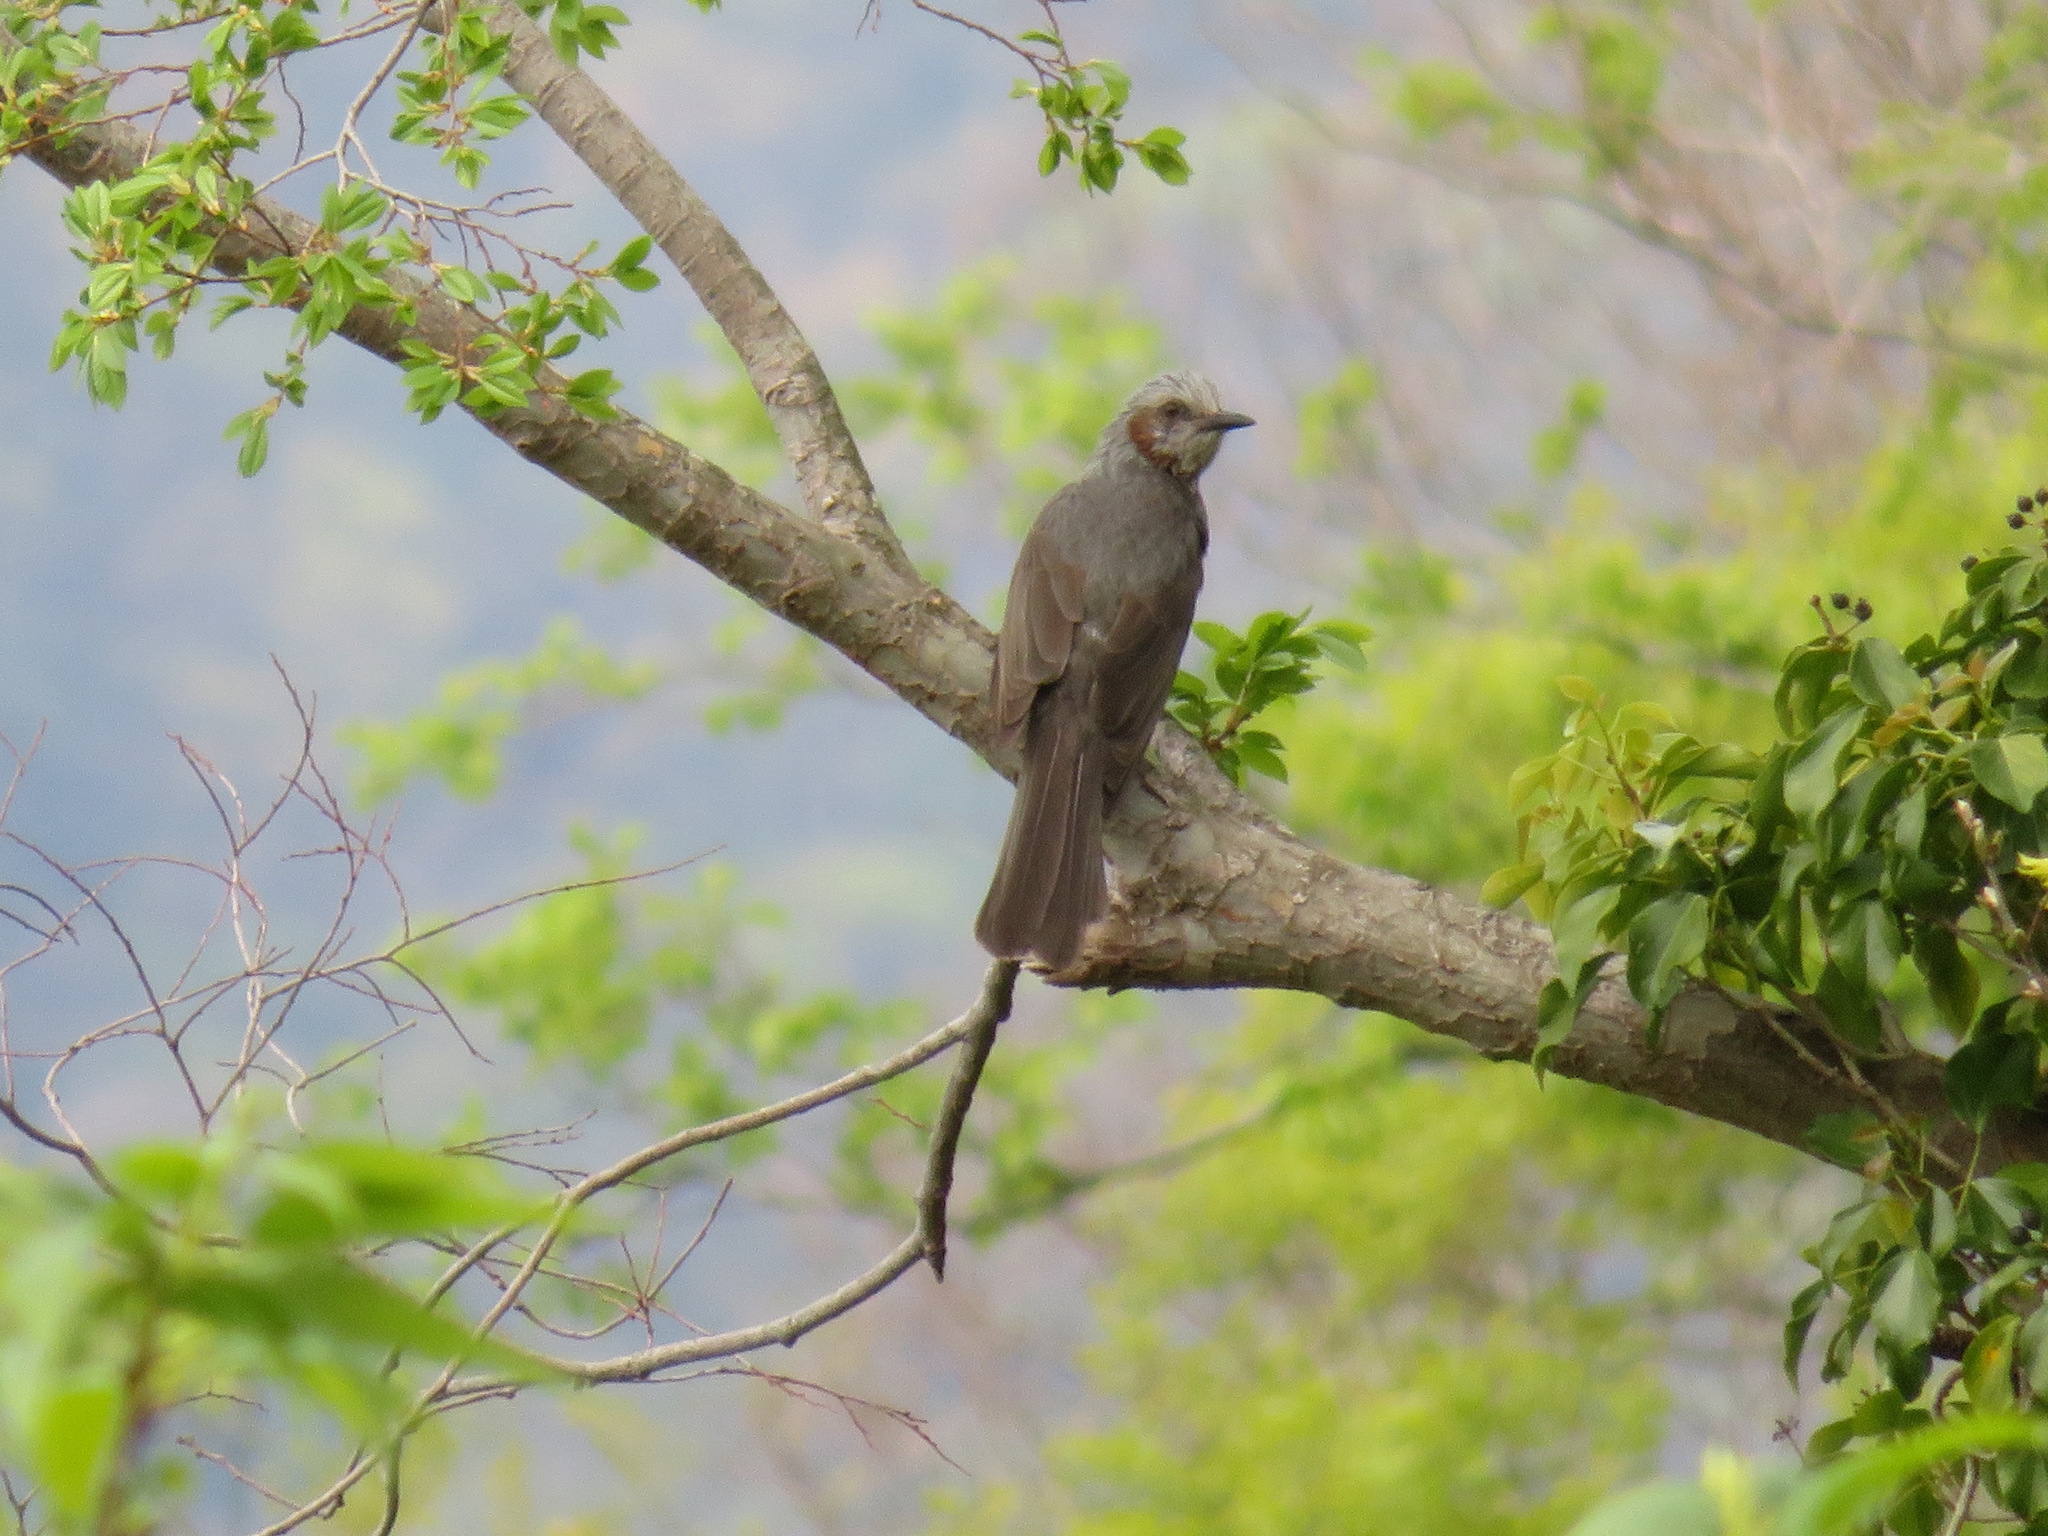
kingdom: Animalia
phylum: Chordata
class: Aves
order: Passeriformes
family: Pycnonotidae
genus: Hypsipetes
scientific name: Hypsipetes amaurotis
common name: Brown-eared bulbul
